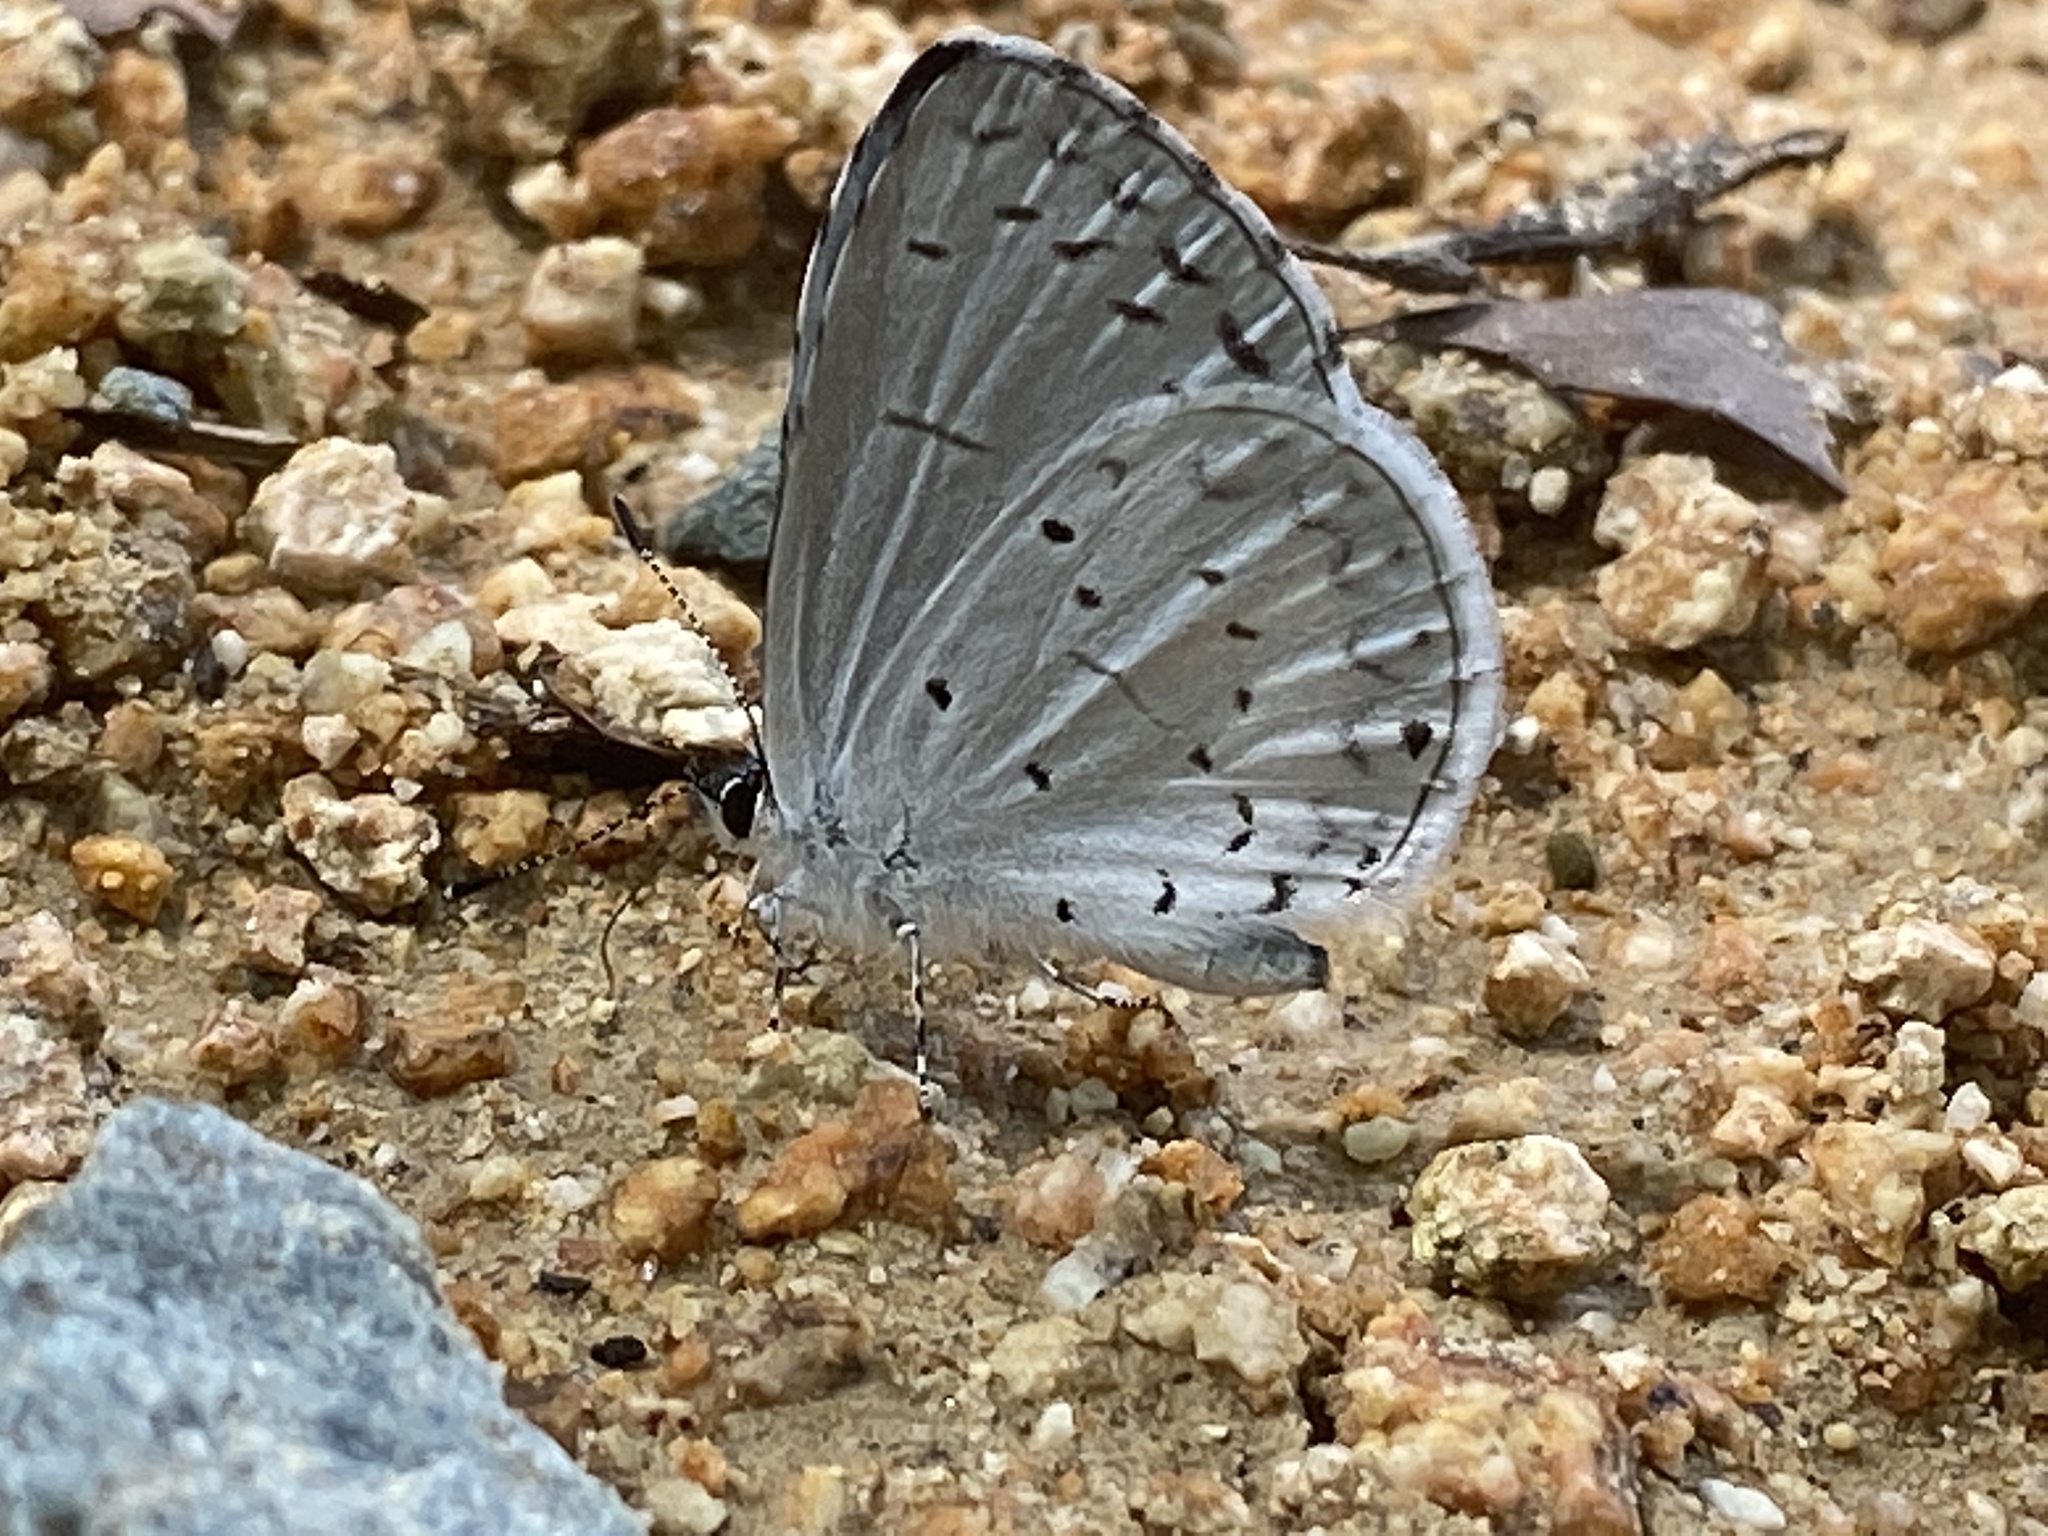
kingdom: Animalia
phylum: Arthropoda
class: Insecta
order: Lepidoptera
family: Lycaenidae
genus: Cyaniris
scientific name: Cyaniris neglecta
